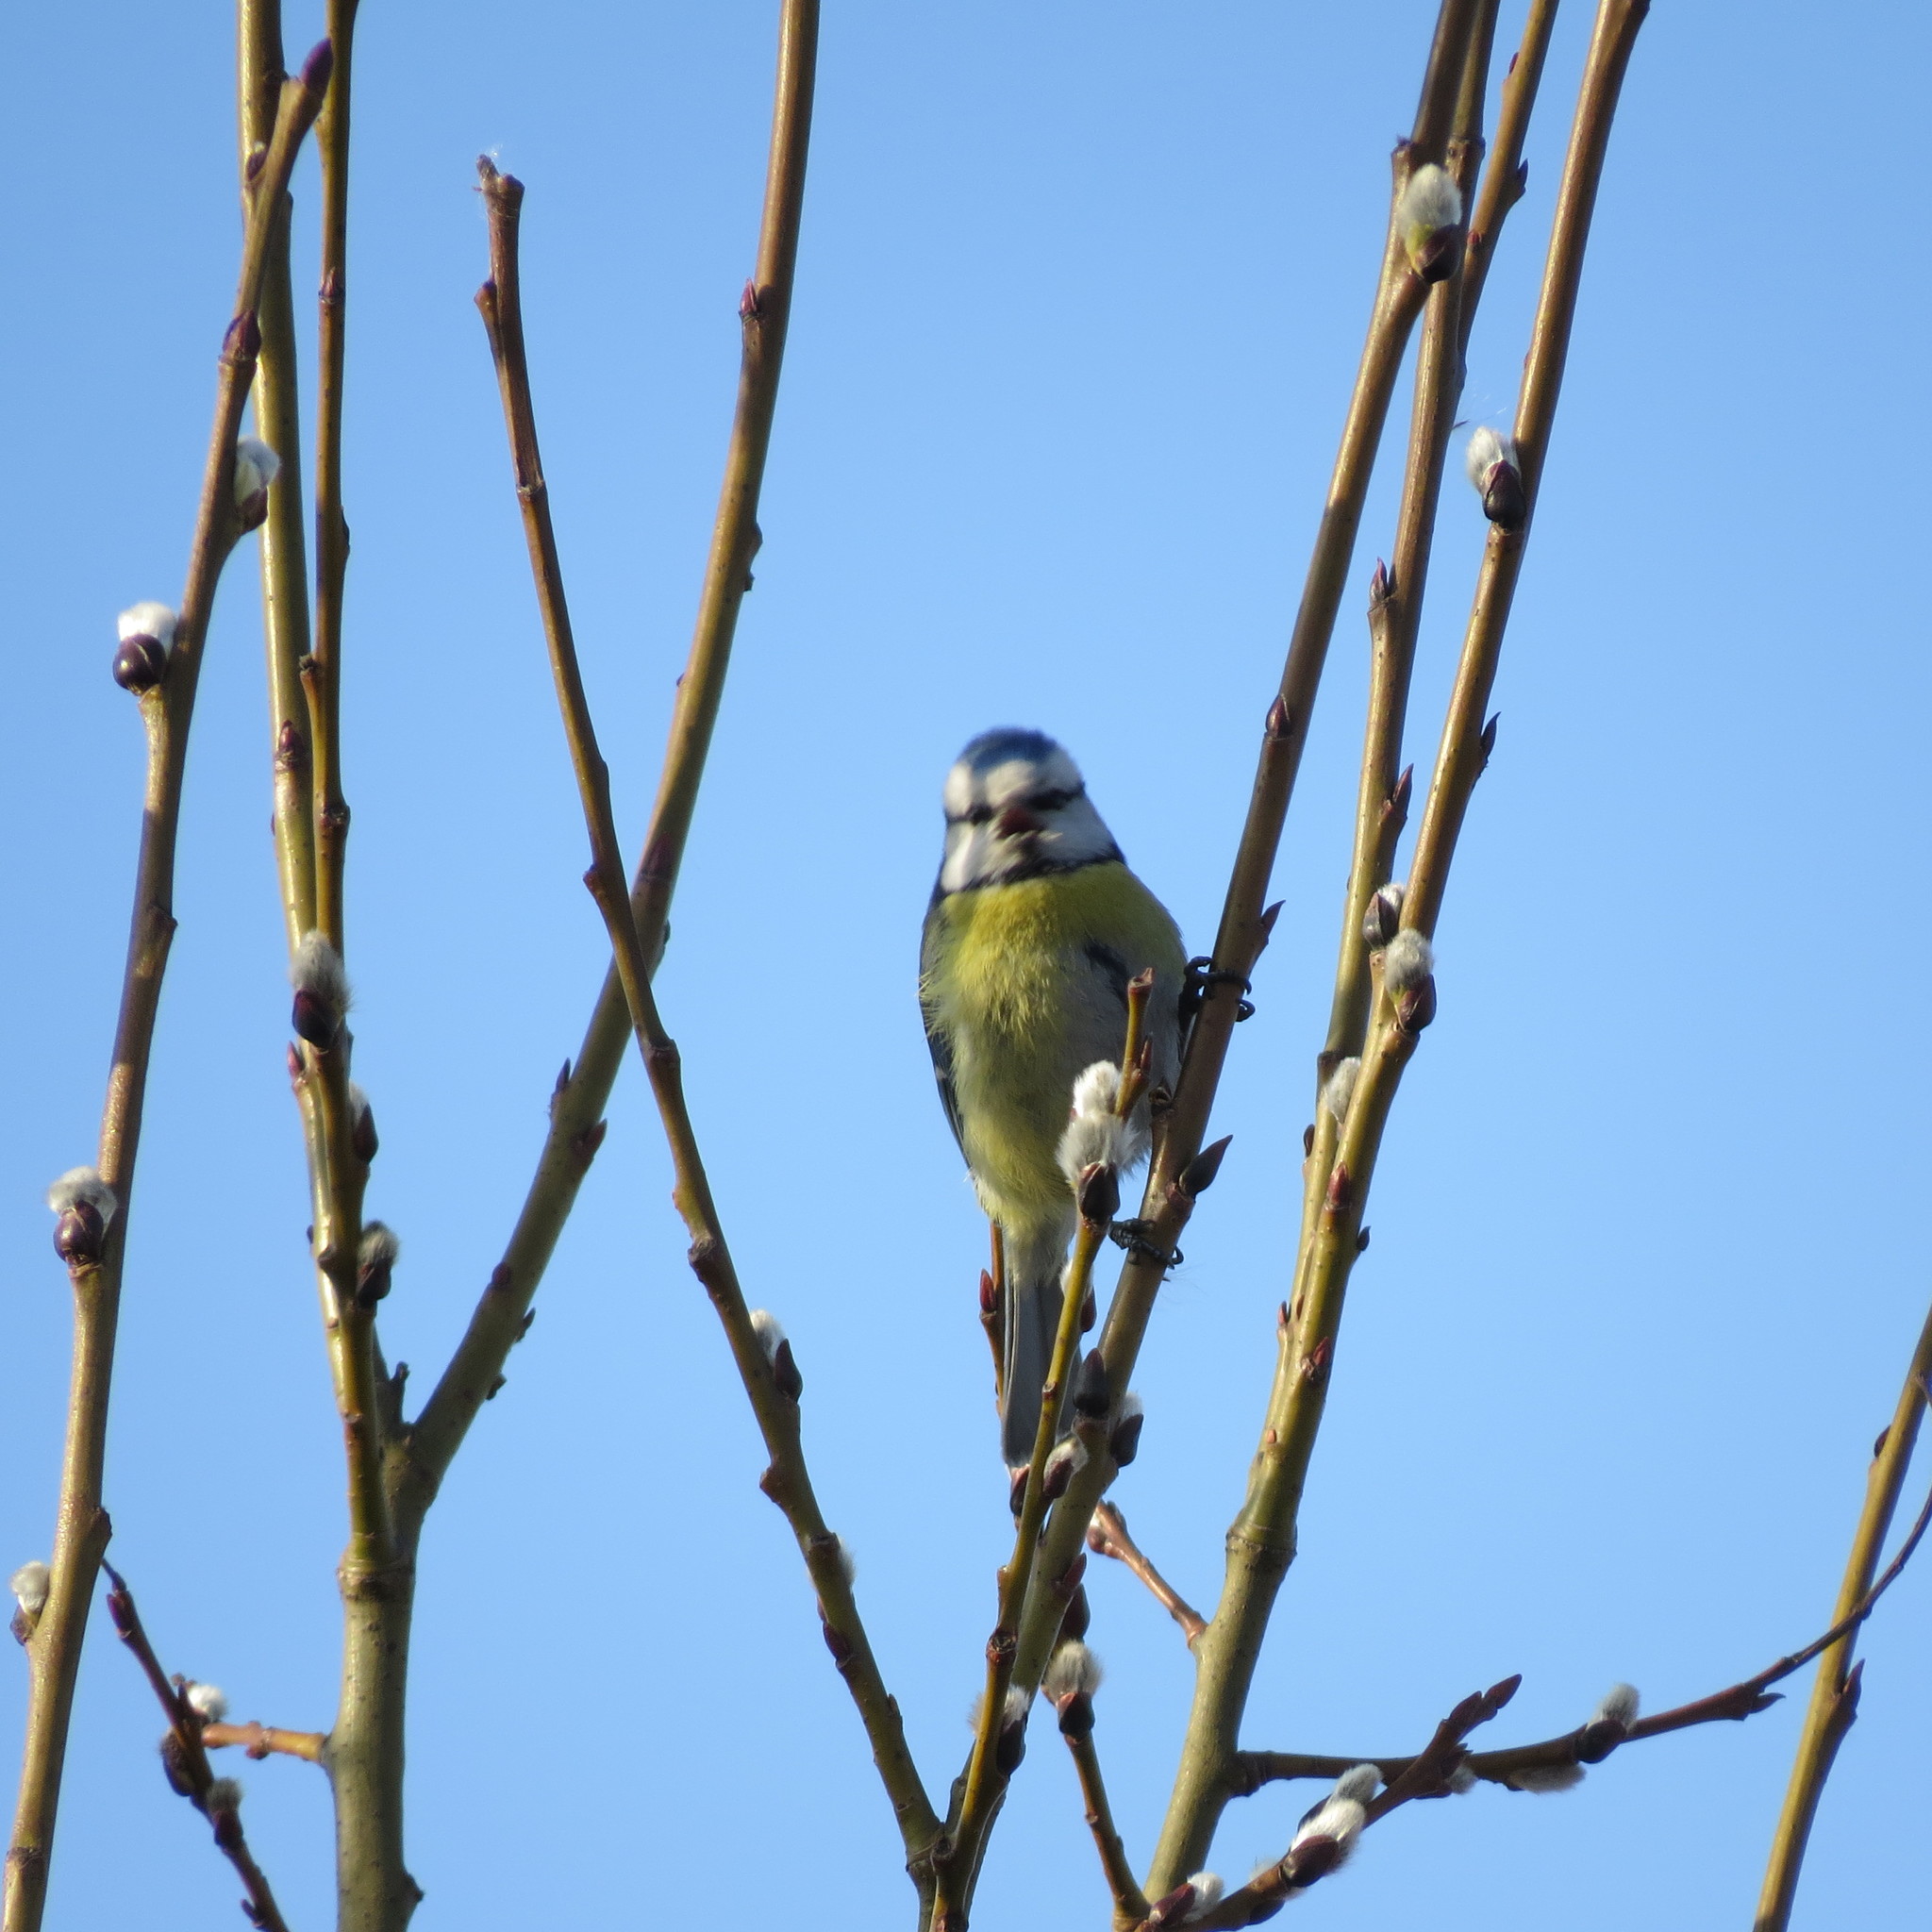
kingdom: Animalia
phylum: Chordata
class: Aves
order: Passeriformes
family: Paridae
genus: Cyanistes
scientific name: Cyanistes caeruleus
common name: Eurasian blue tit
